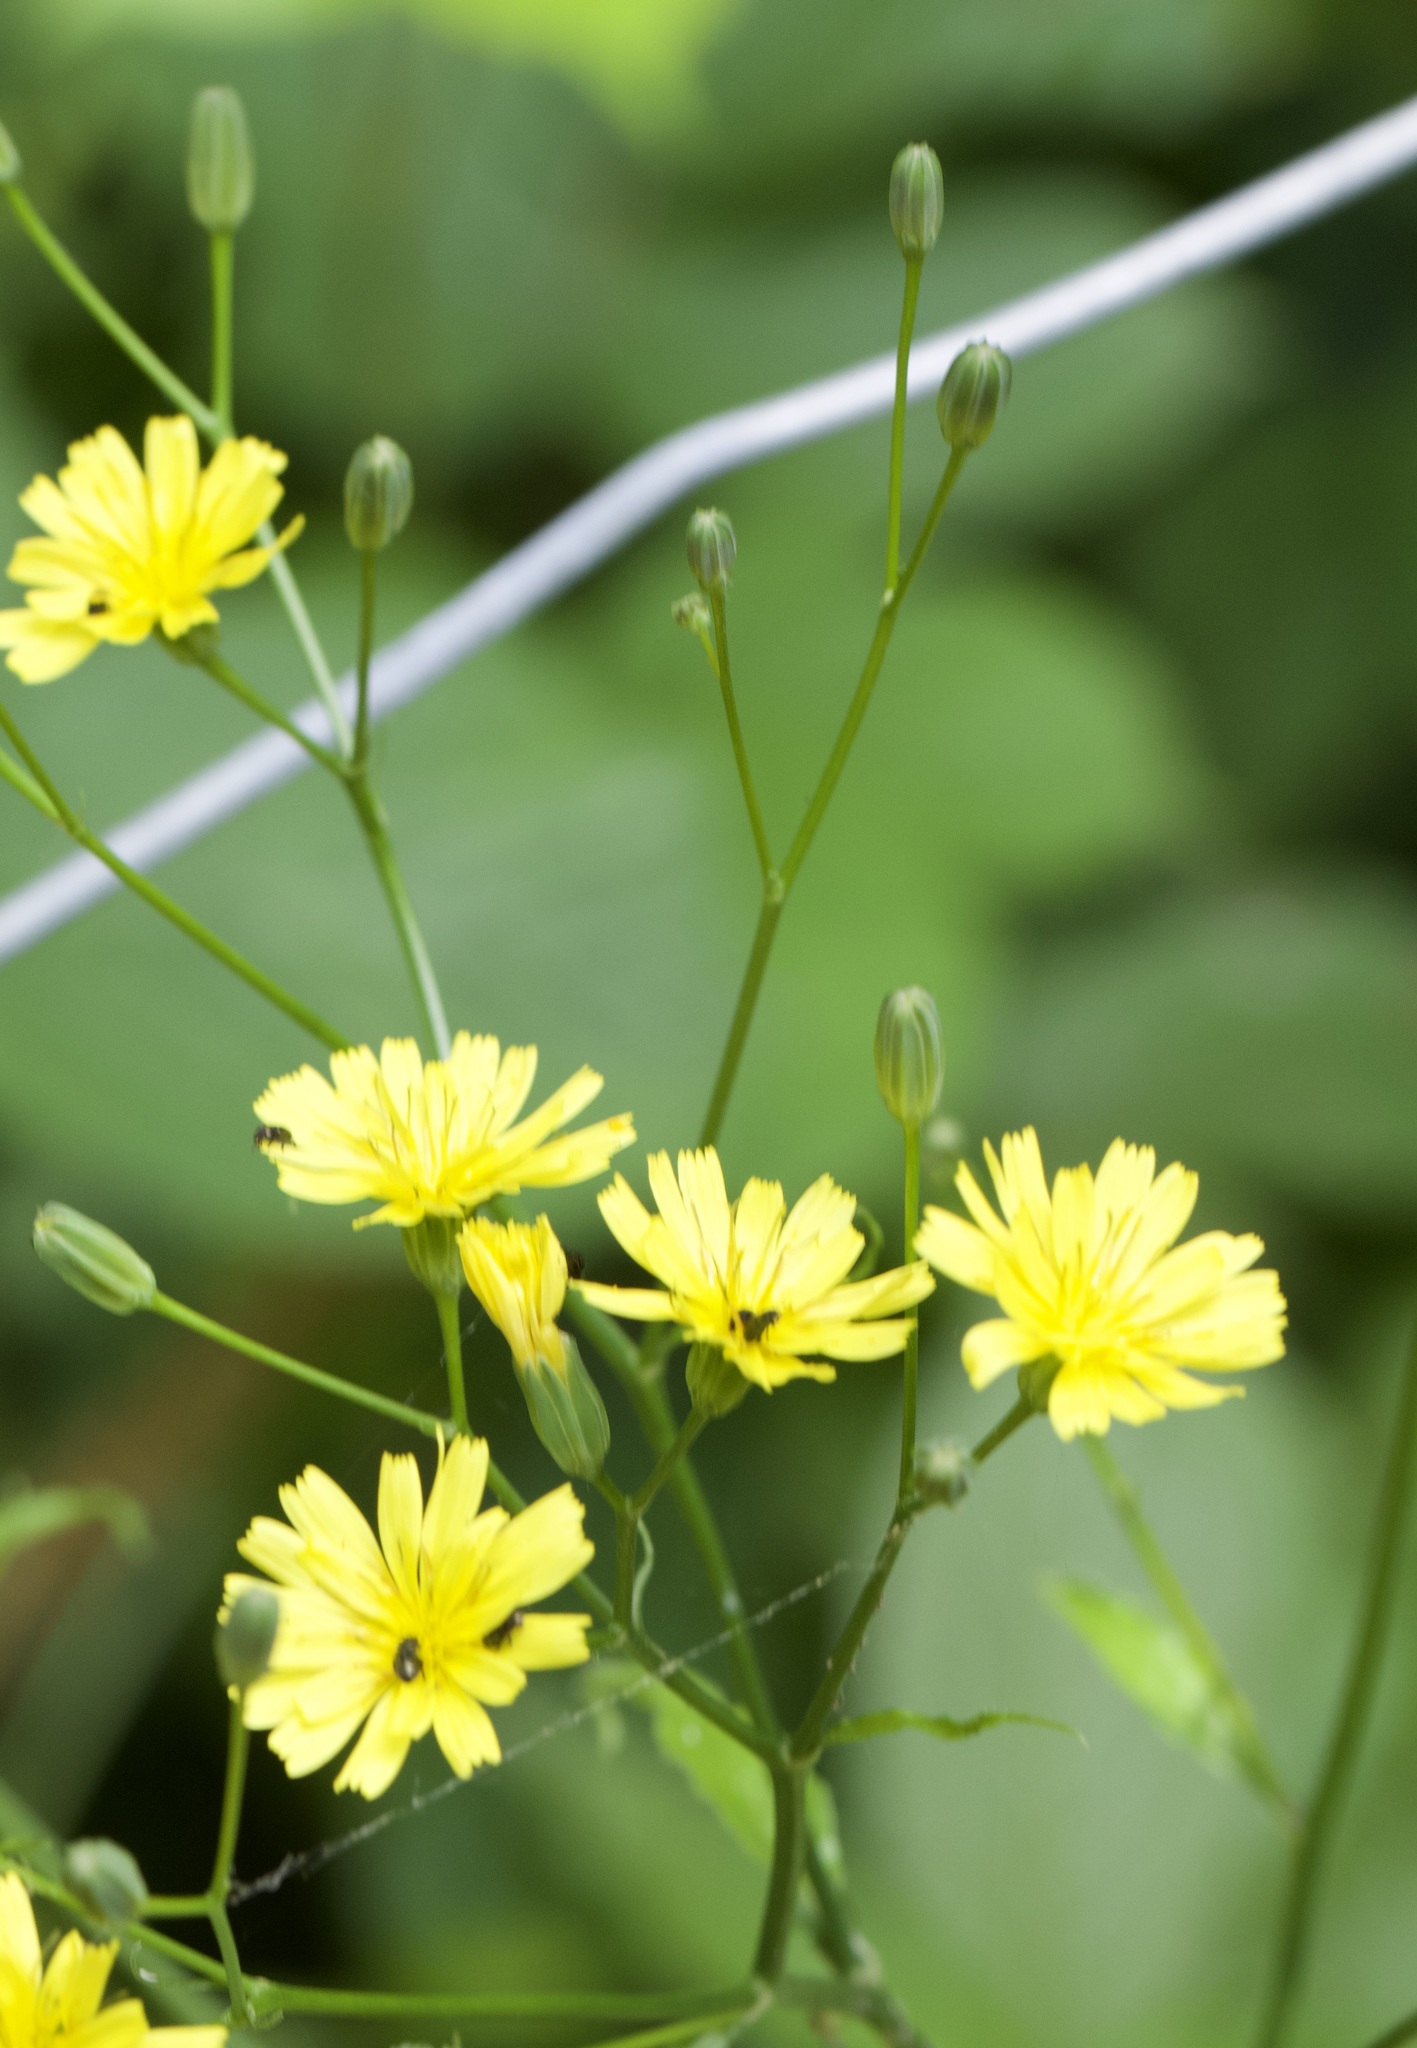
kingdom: Plantae
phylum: Tracheophyta
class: Magnoliopsida
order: Asterales
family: Asteraceae
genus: Lapsana
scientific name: Lapsana communis
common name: Nipplewort
